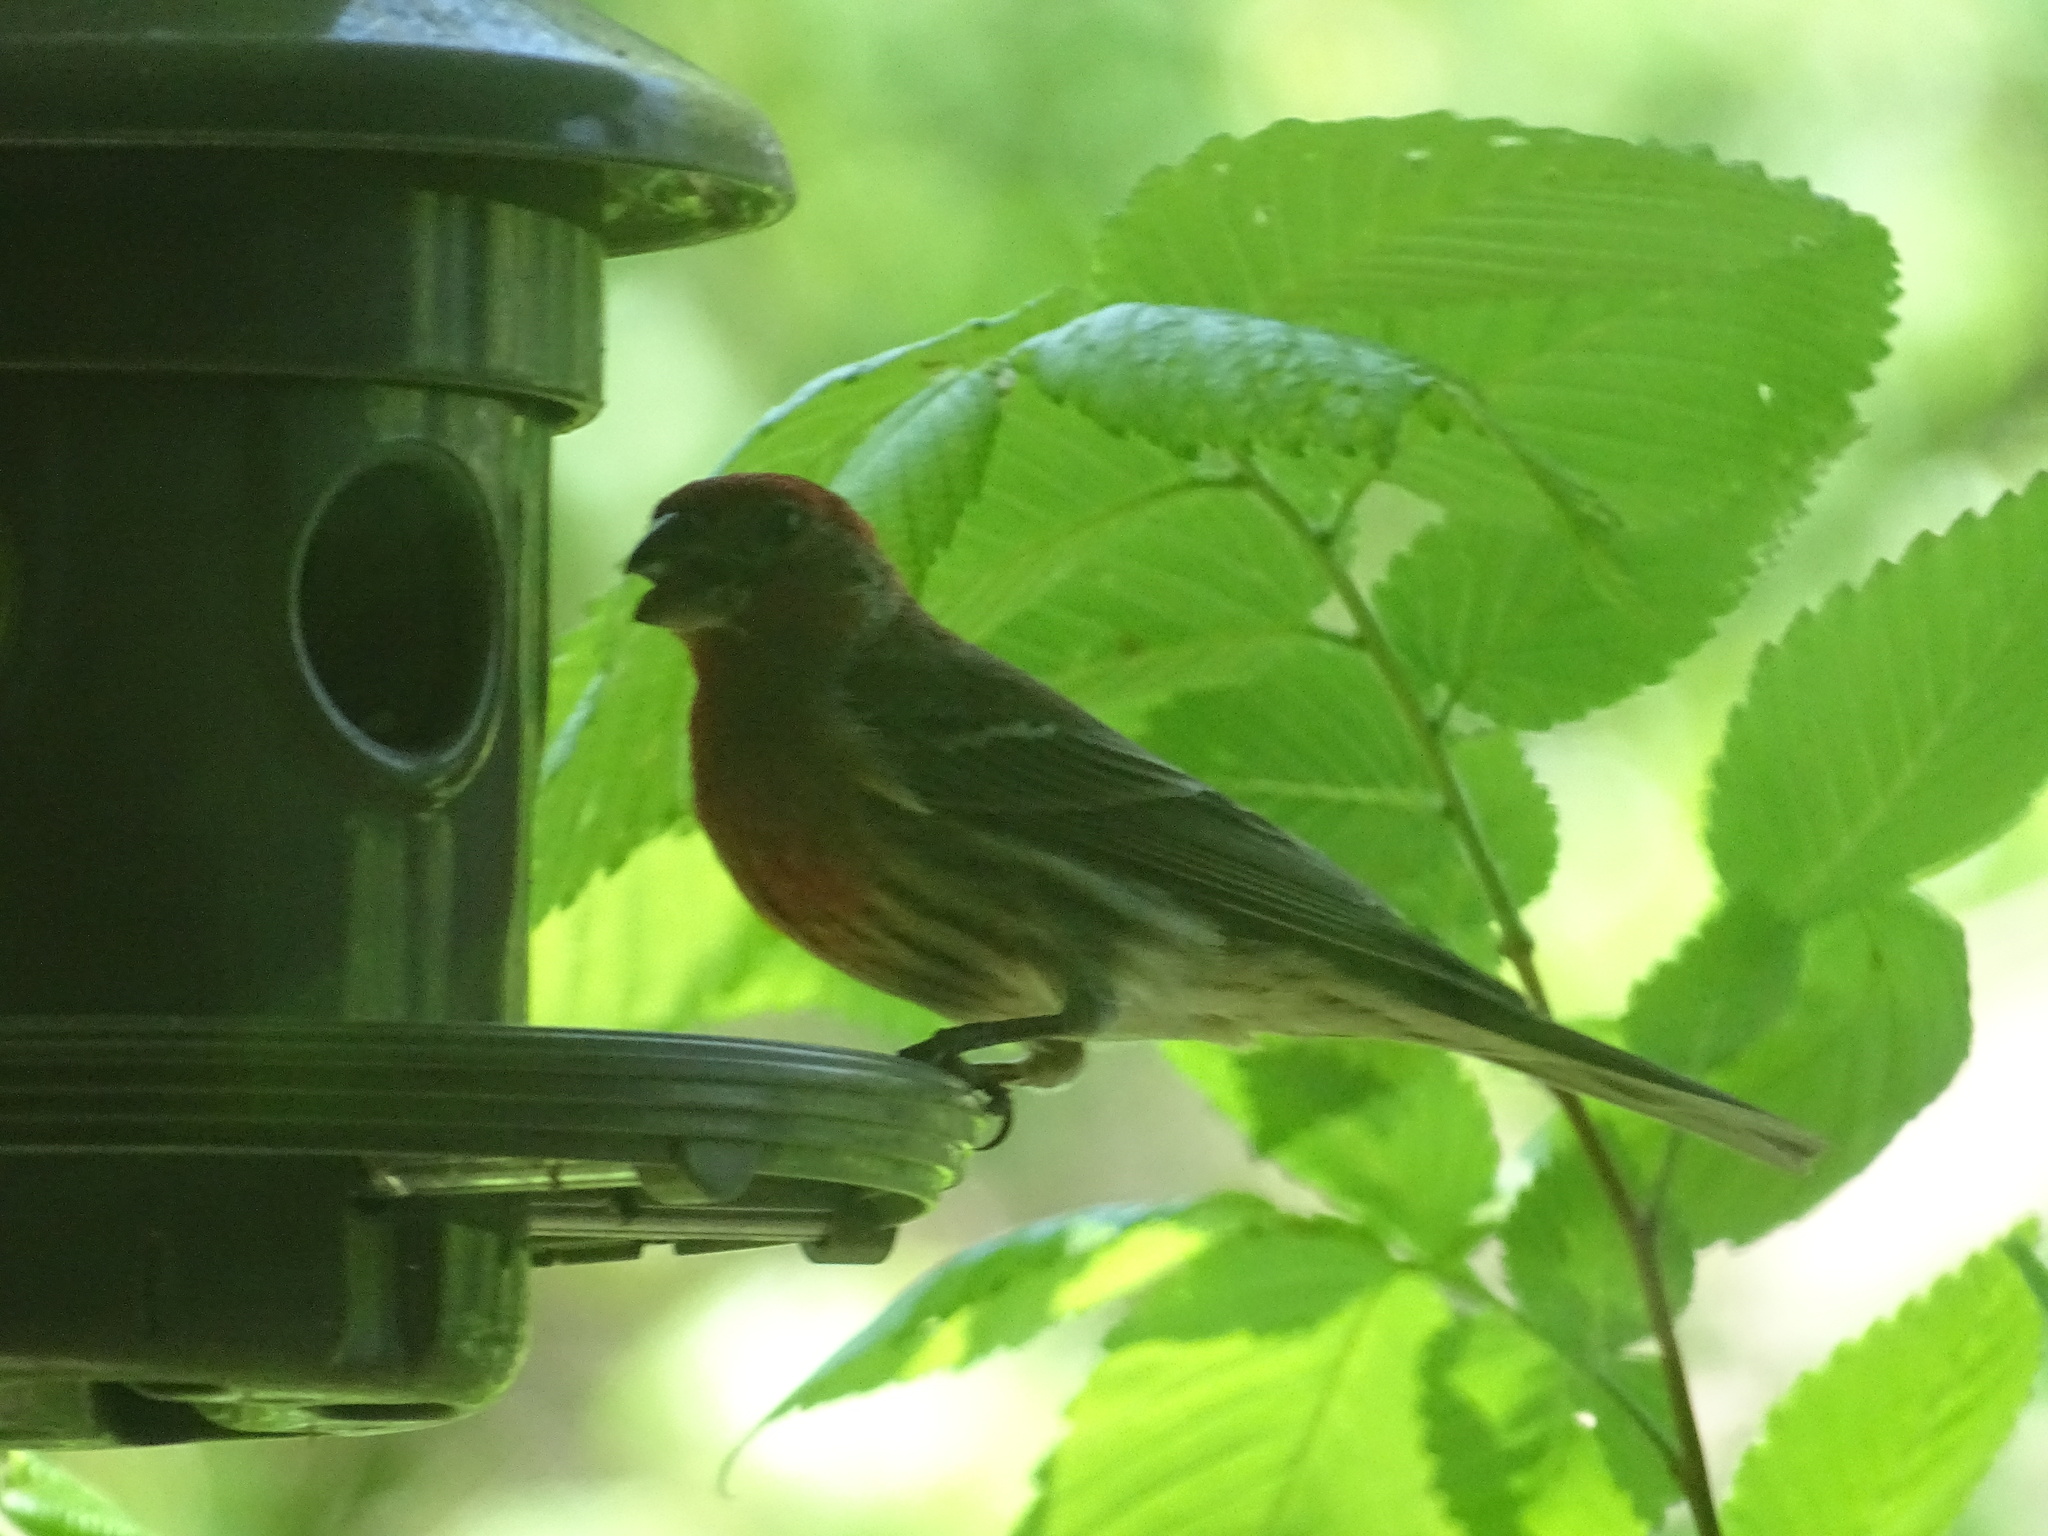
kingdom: Animalia
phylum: Chordata
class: Aves
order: Passeriformes
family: Fringillidae
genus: Haemorhous
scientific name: Haemorhous mexicanus
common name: House finch
